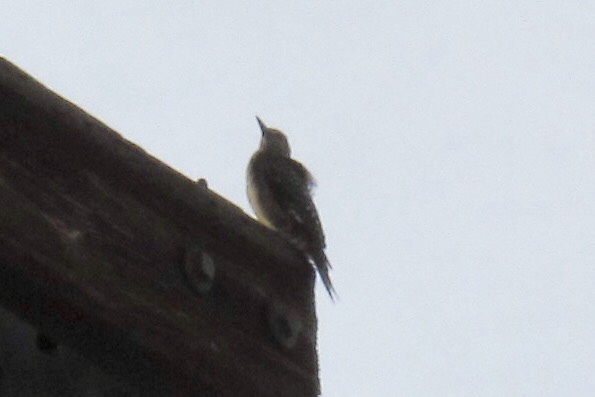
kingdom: Animalia
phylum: Chordata
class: Aves
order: Piciformes
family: Picidae
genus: Melanerpes
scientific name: Melanerpes uropygialis
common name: Gila woodpecker
